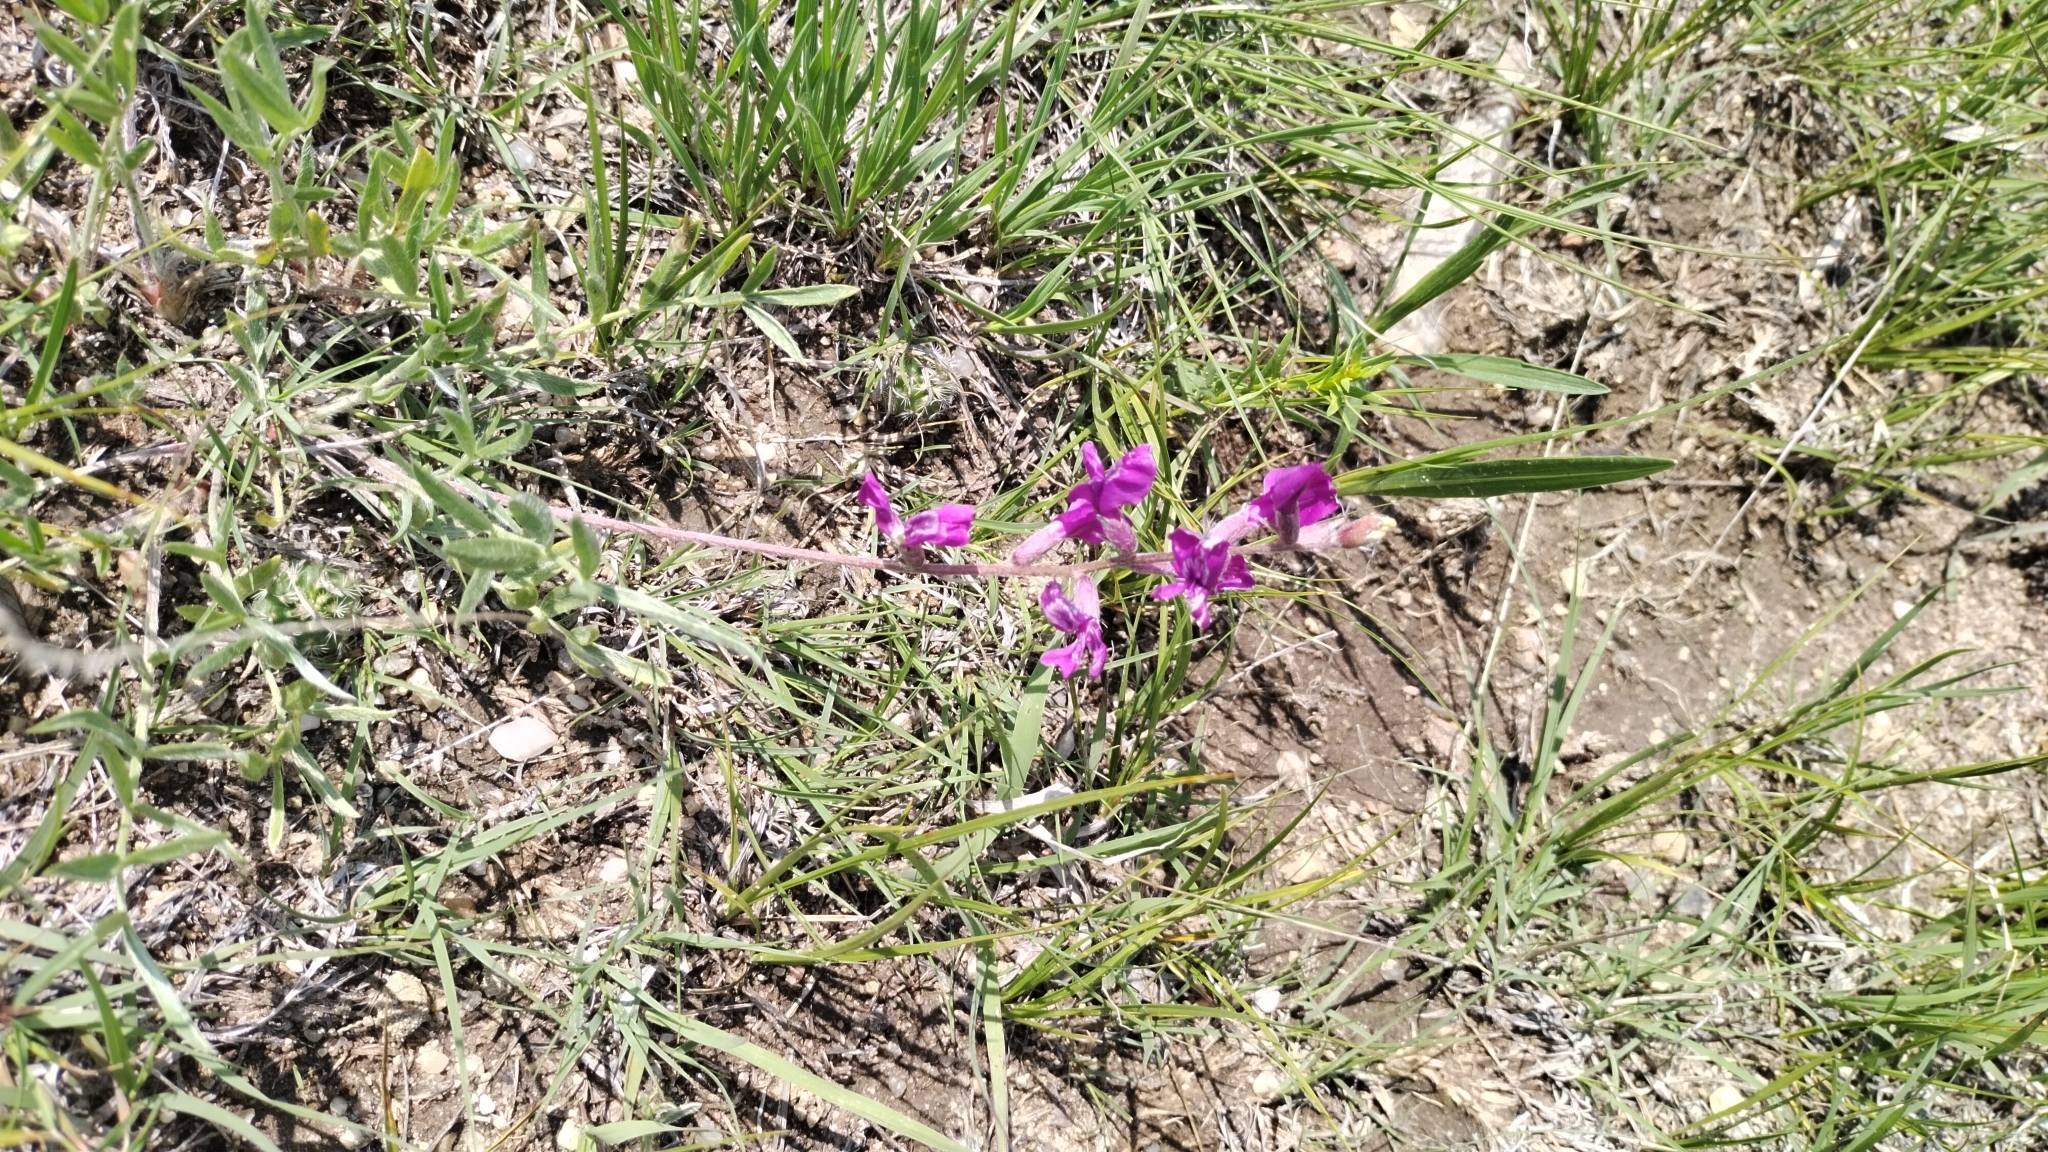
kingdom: Plantae
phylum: Tracheophyta
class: Magnoliopsida
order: Fabales
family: Fabaceae
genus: Oxytropis
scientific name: Oxytropis lambertii
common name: Purple locoweed
